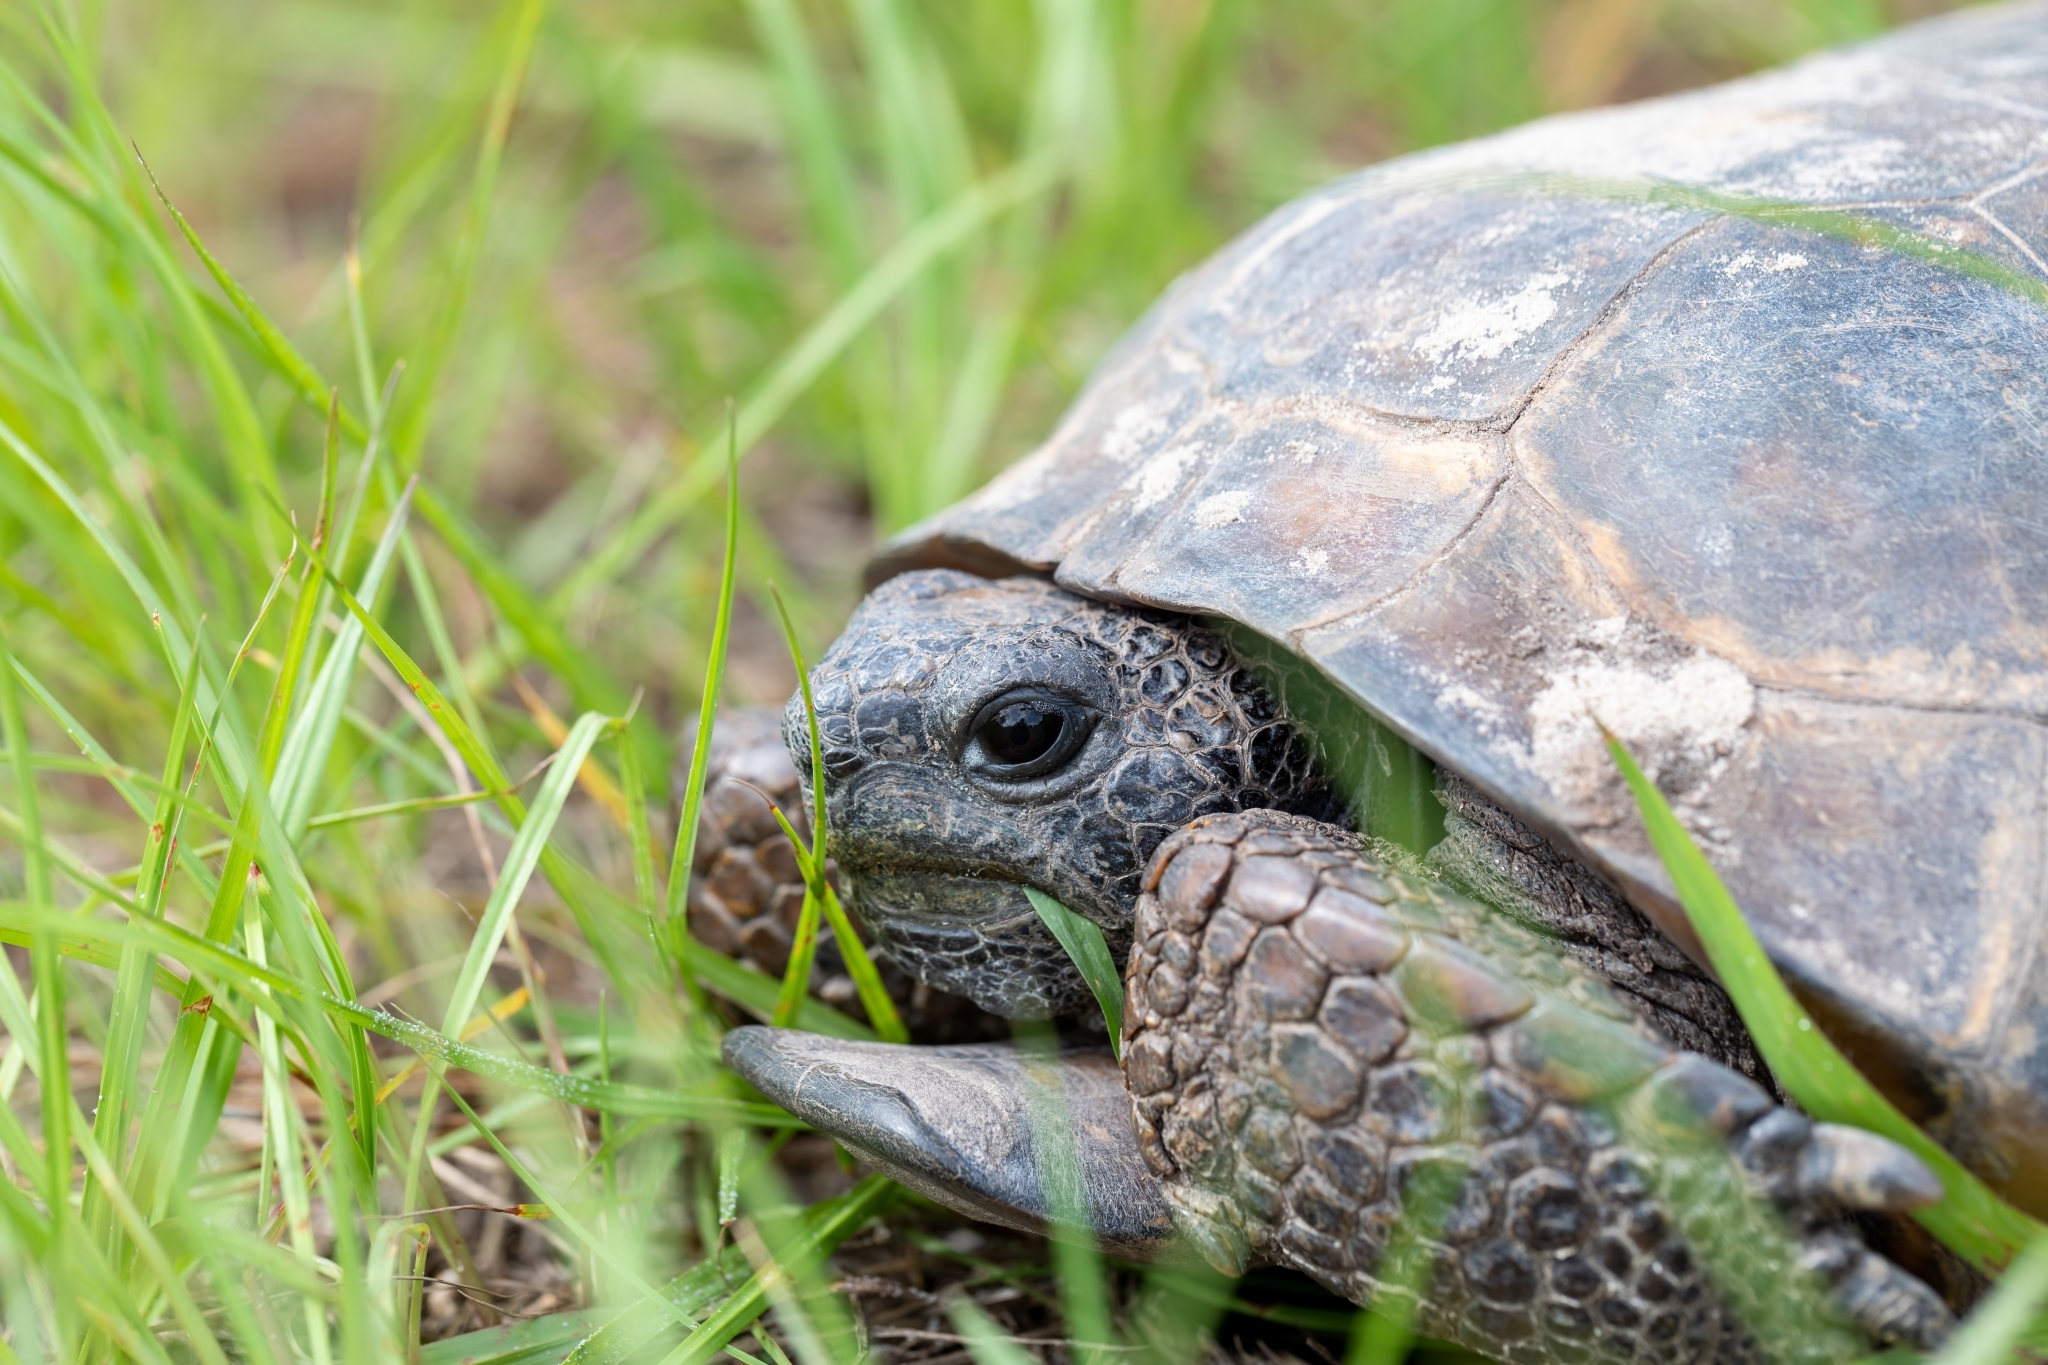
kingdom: Animalia
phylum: Chordata
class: Testudines
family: Testudinidae
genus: Gopherus
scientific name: Gopherus polyphemus
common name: Florida gopher tortoise
